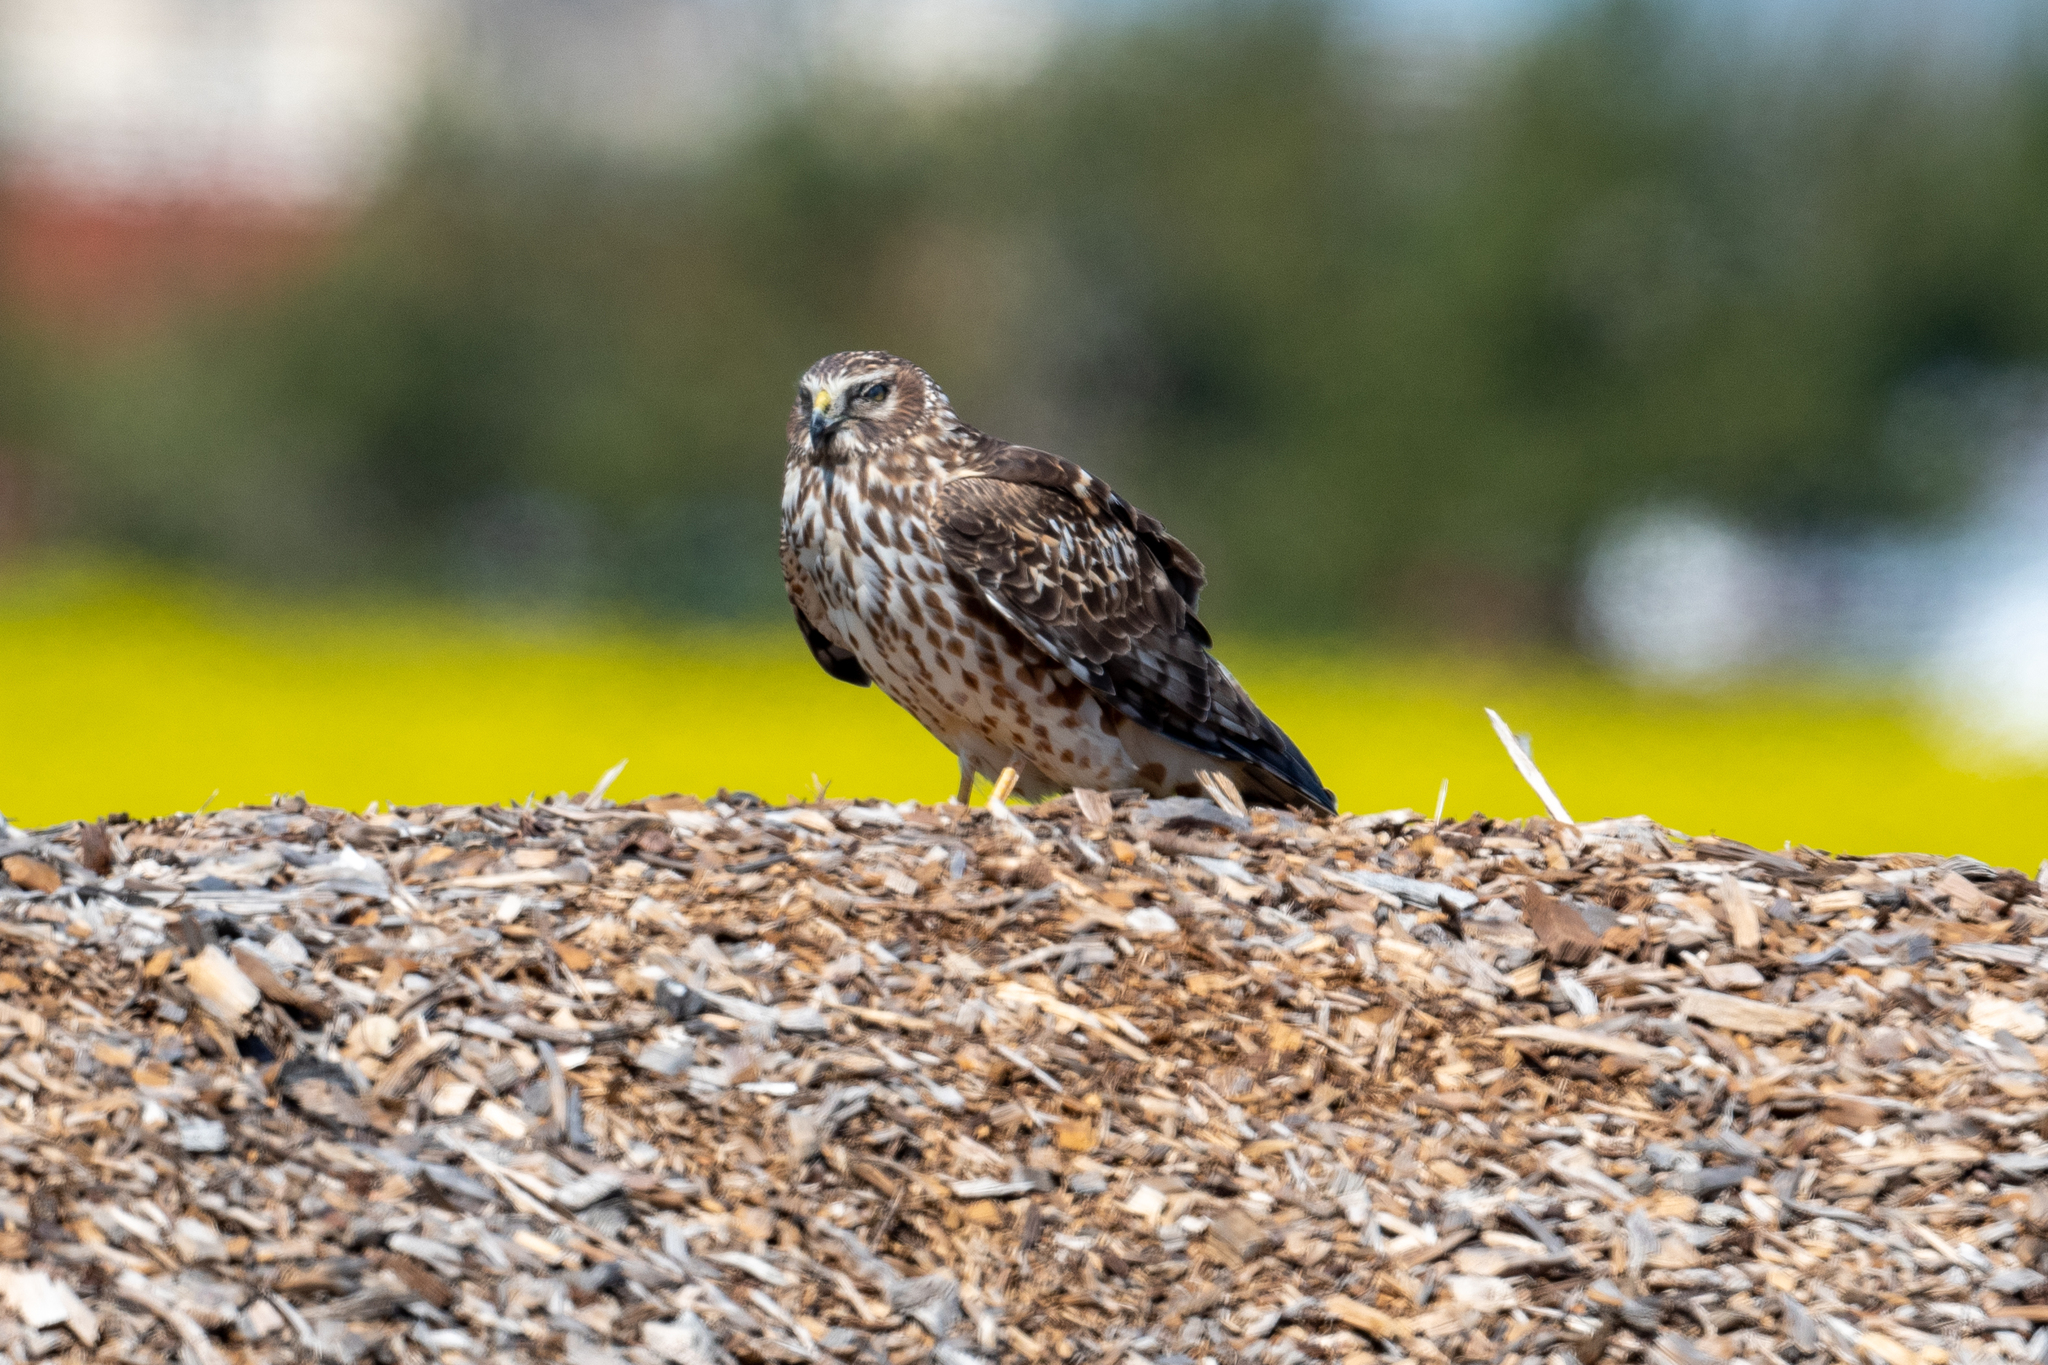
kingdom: Animalia
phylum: Chordata
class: Aves
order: Accipitriformes
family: Accipitridae
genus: Circus
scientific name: Circus cyaneus
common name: Hen harrier
